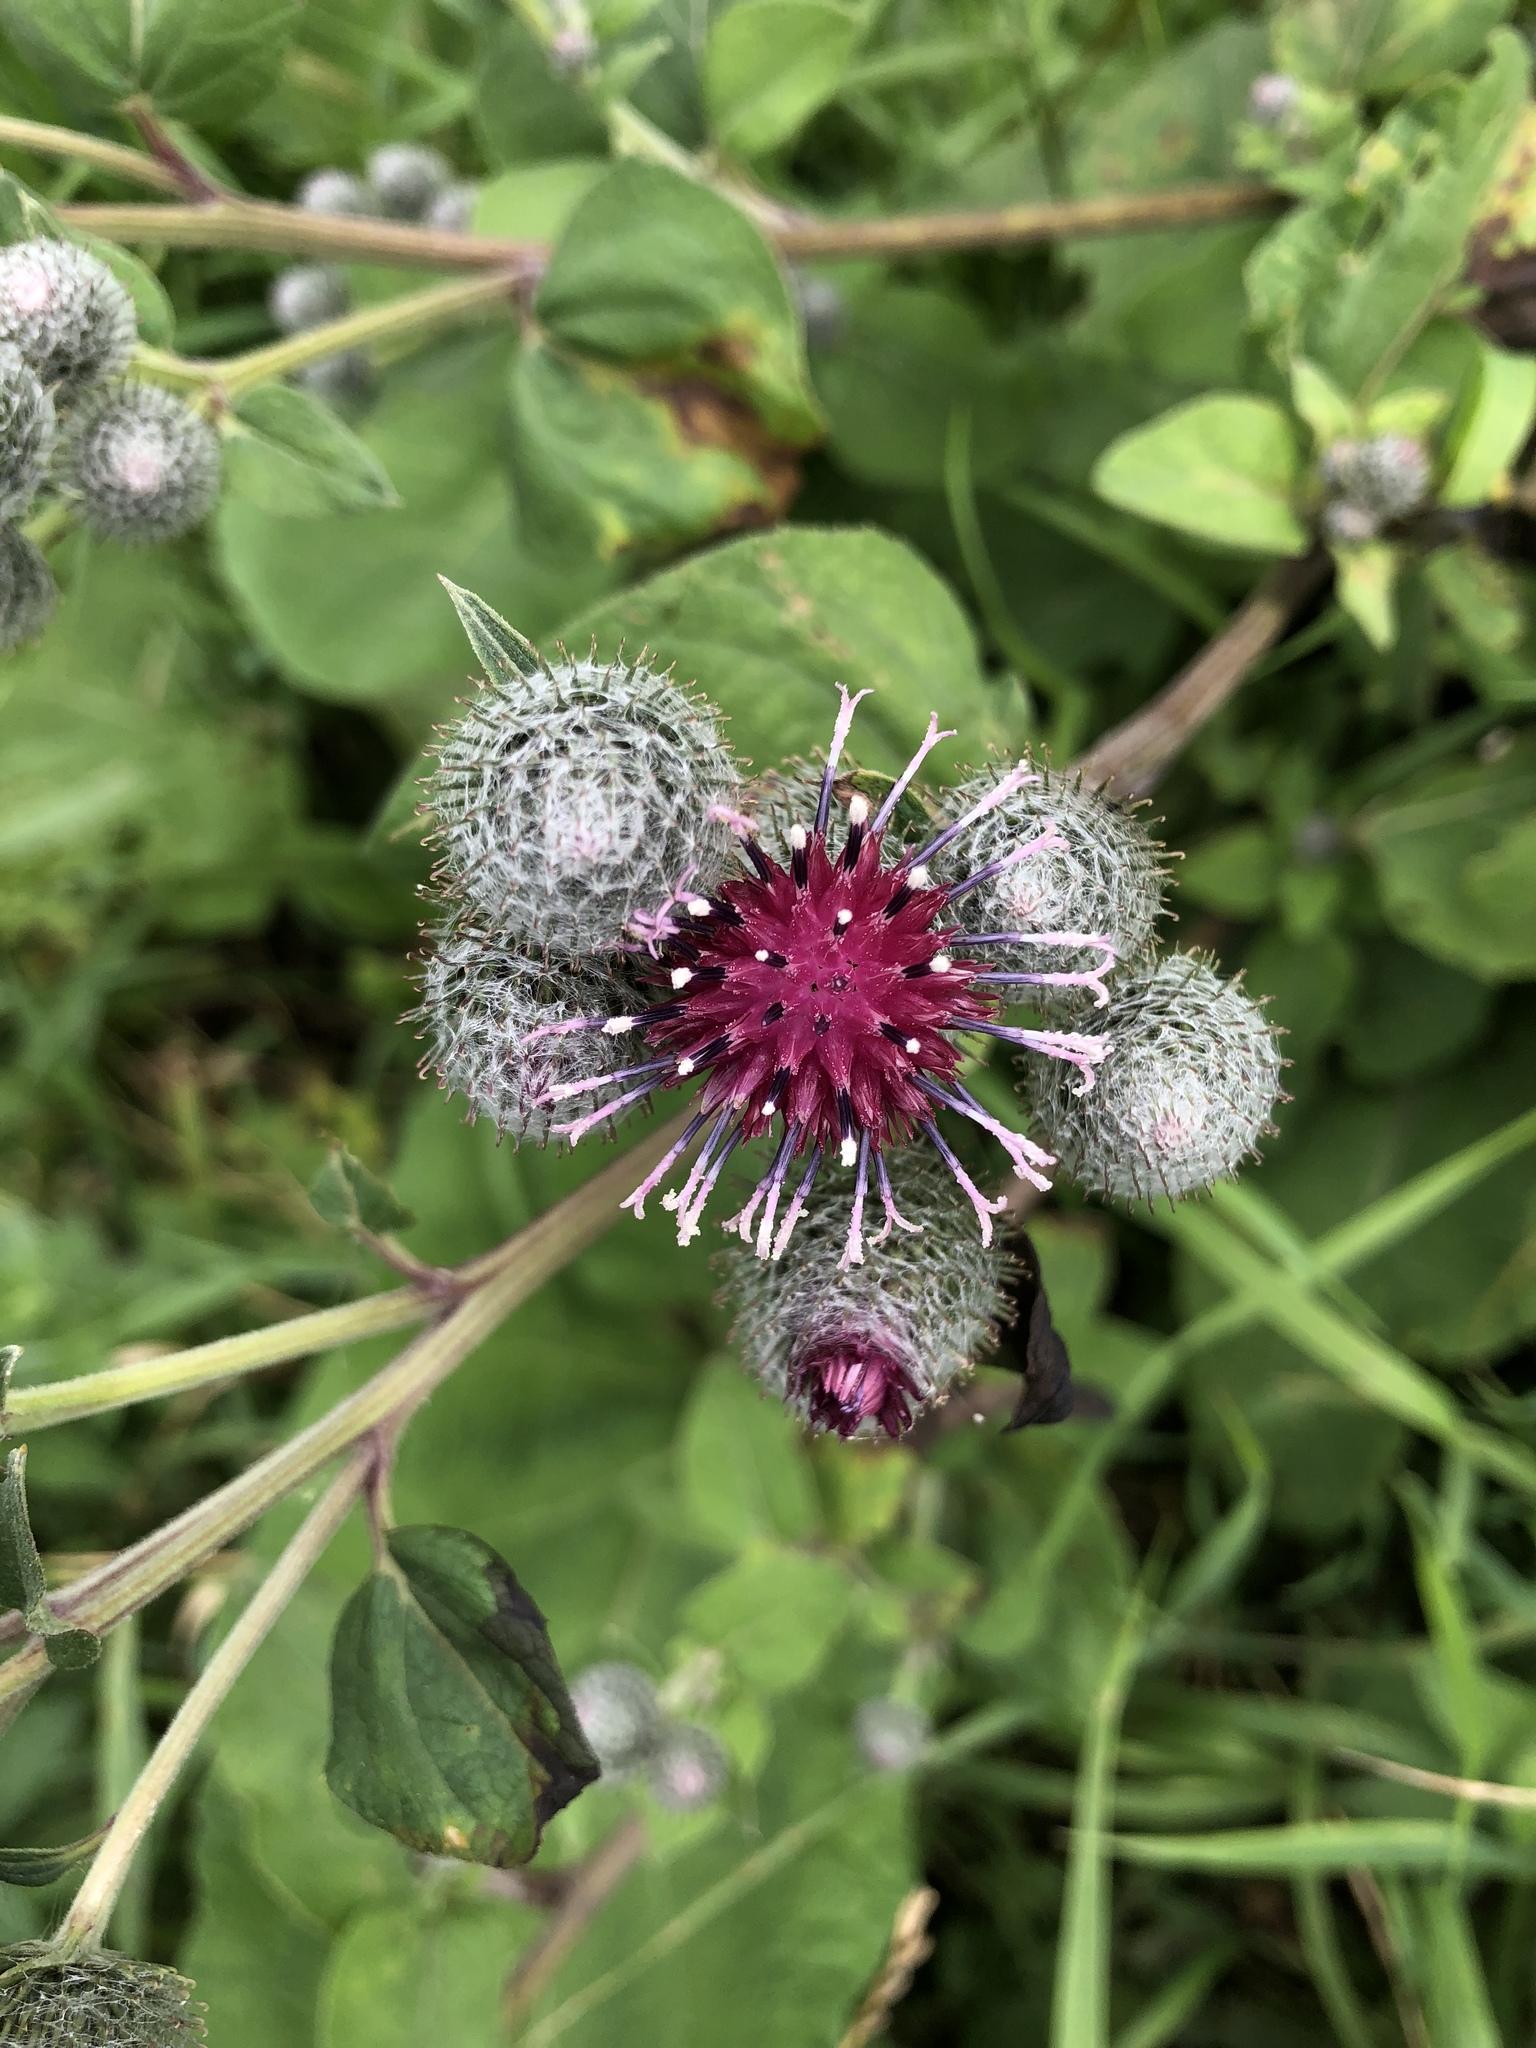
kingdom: Plantae
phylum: Tracheophyta
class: Magnoliopsida
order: Asterales
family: Asteraceae
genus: Arctium
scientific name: Arctium tomentosum
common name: Woolly burdock
